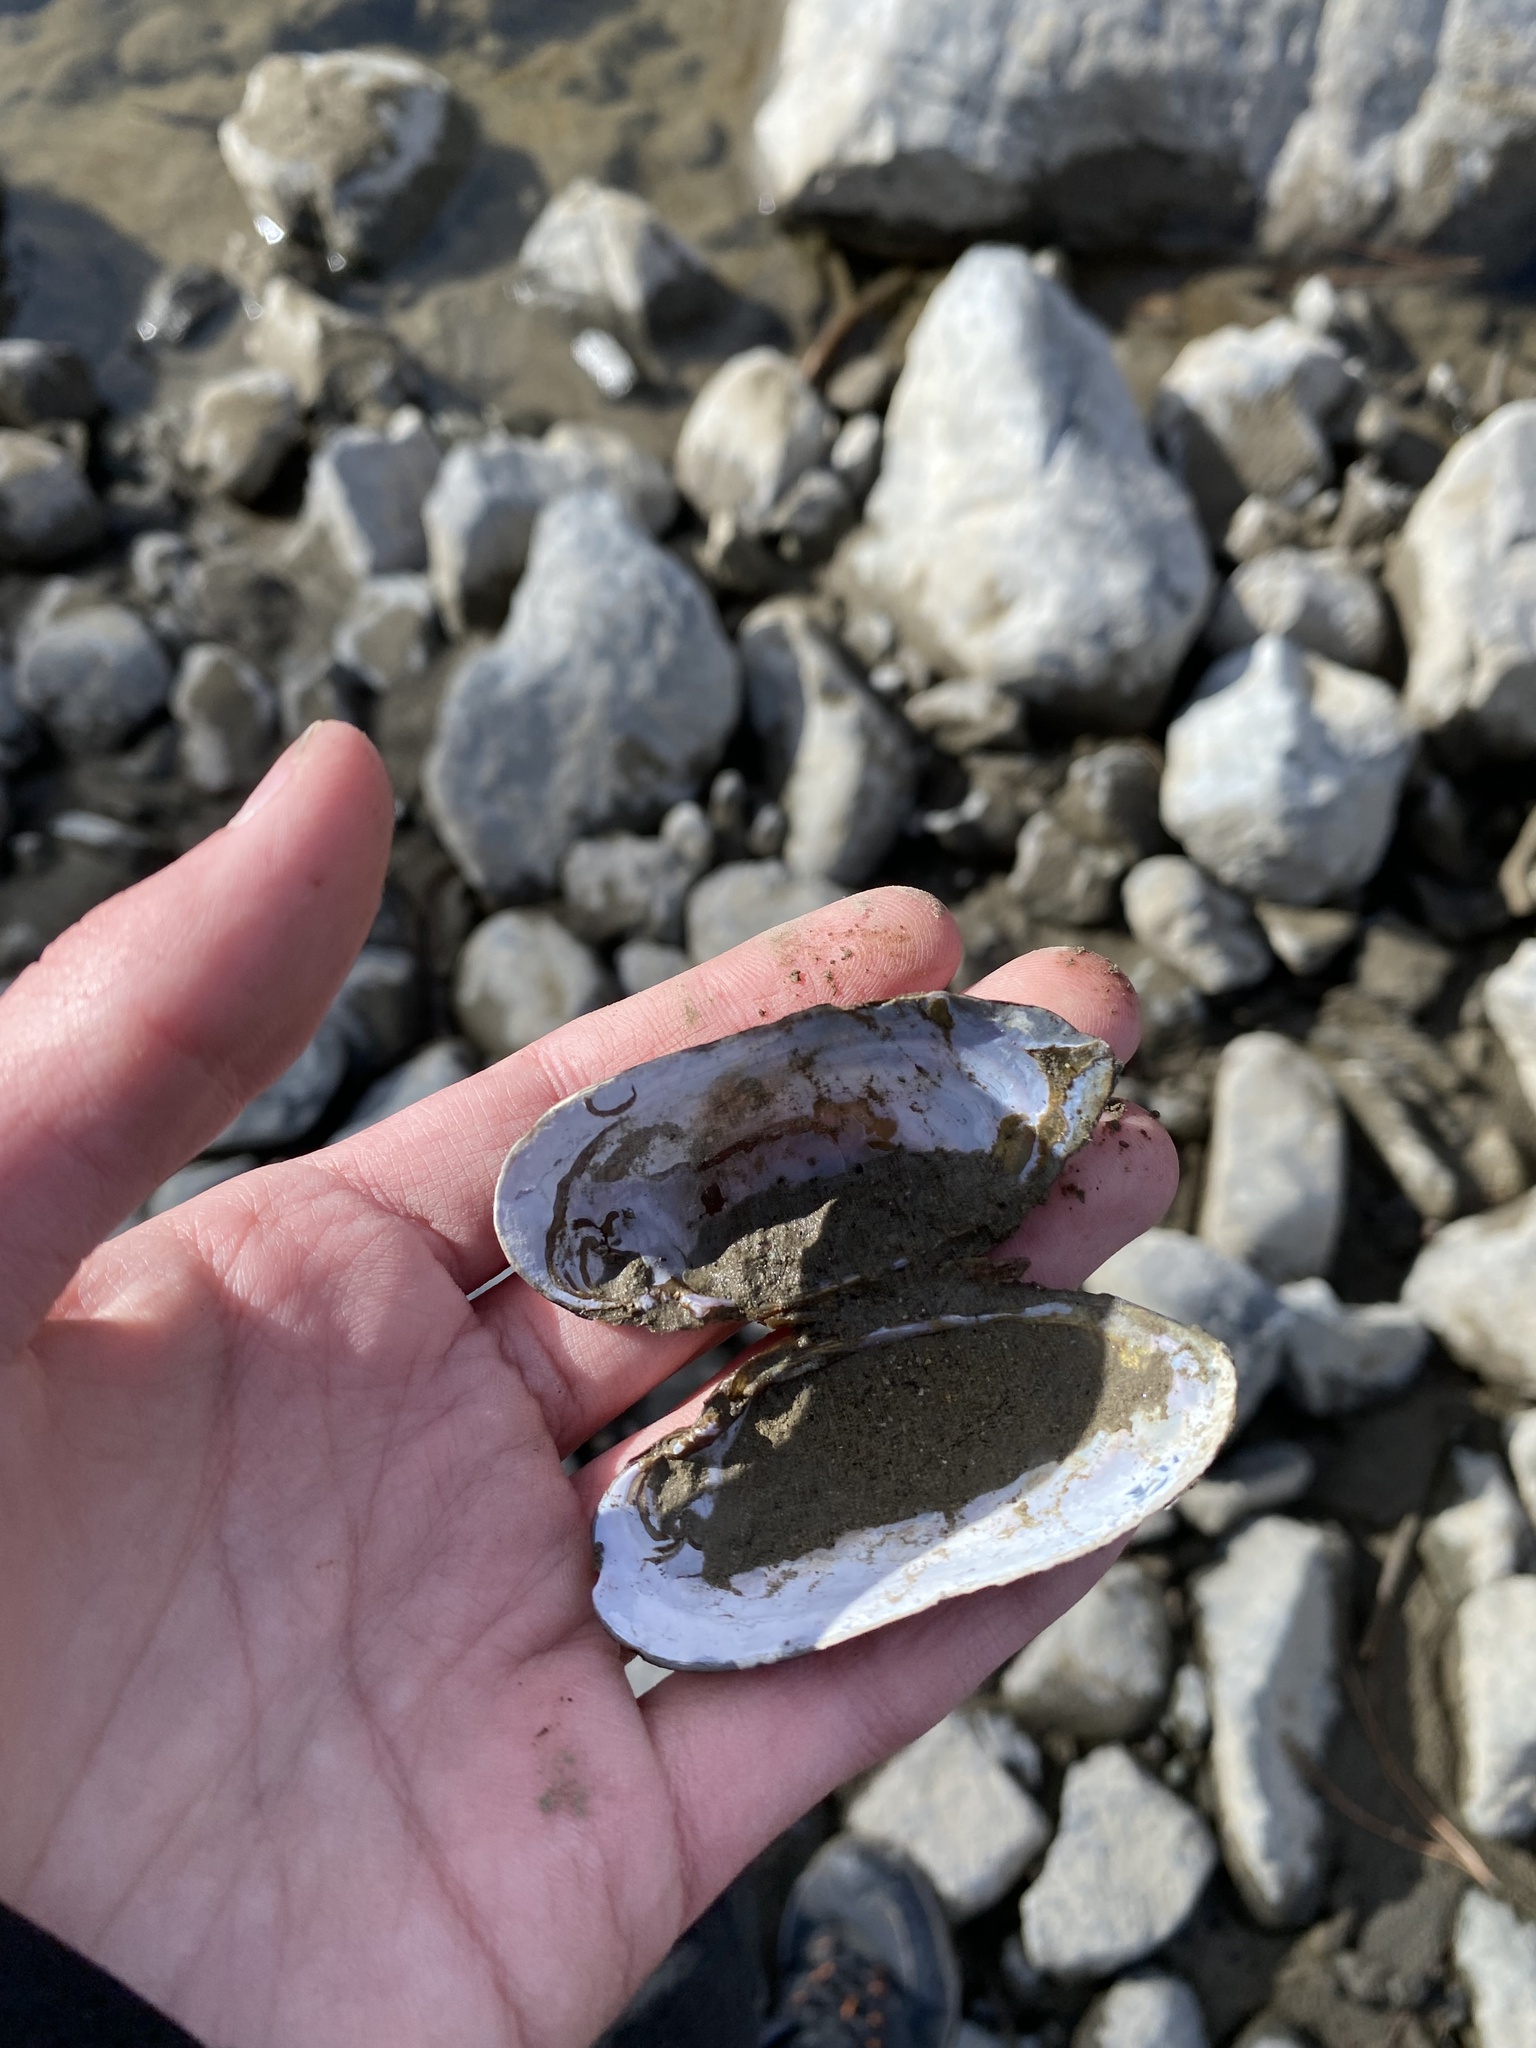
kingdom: Animalia
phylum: Mollusca
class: Bivalvia
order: Unionida
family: Margaritiferidae
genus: Margaritifera
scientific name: Margaritifera falcata
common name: Western pearlshell
